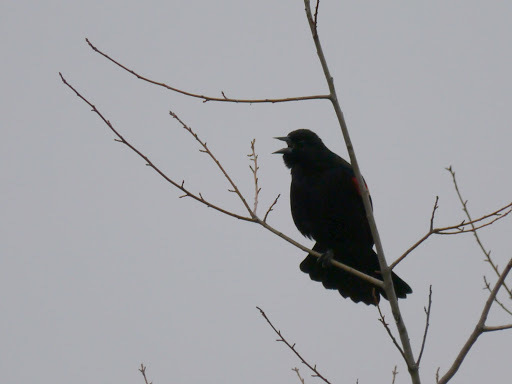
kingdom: Animalia
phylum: Chordata
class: Aves
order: Passeriformes
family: Icteridae
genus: Agelaius
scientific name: Agelaius phoeniceus
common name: Red-winged blackbird
